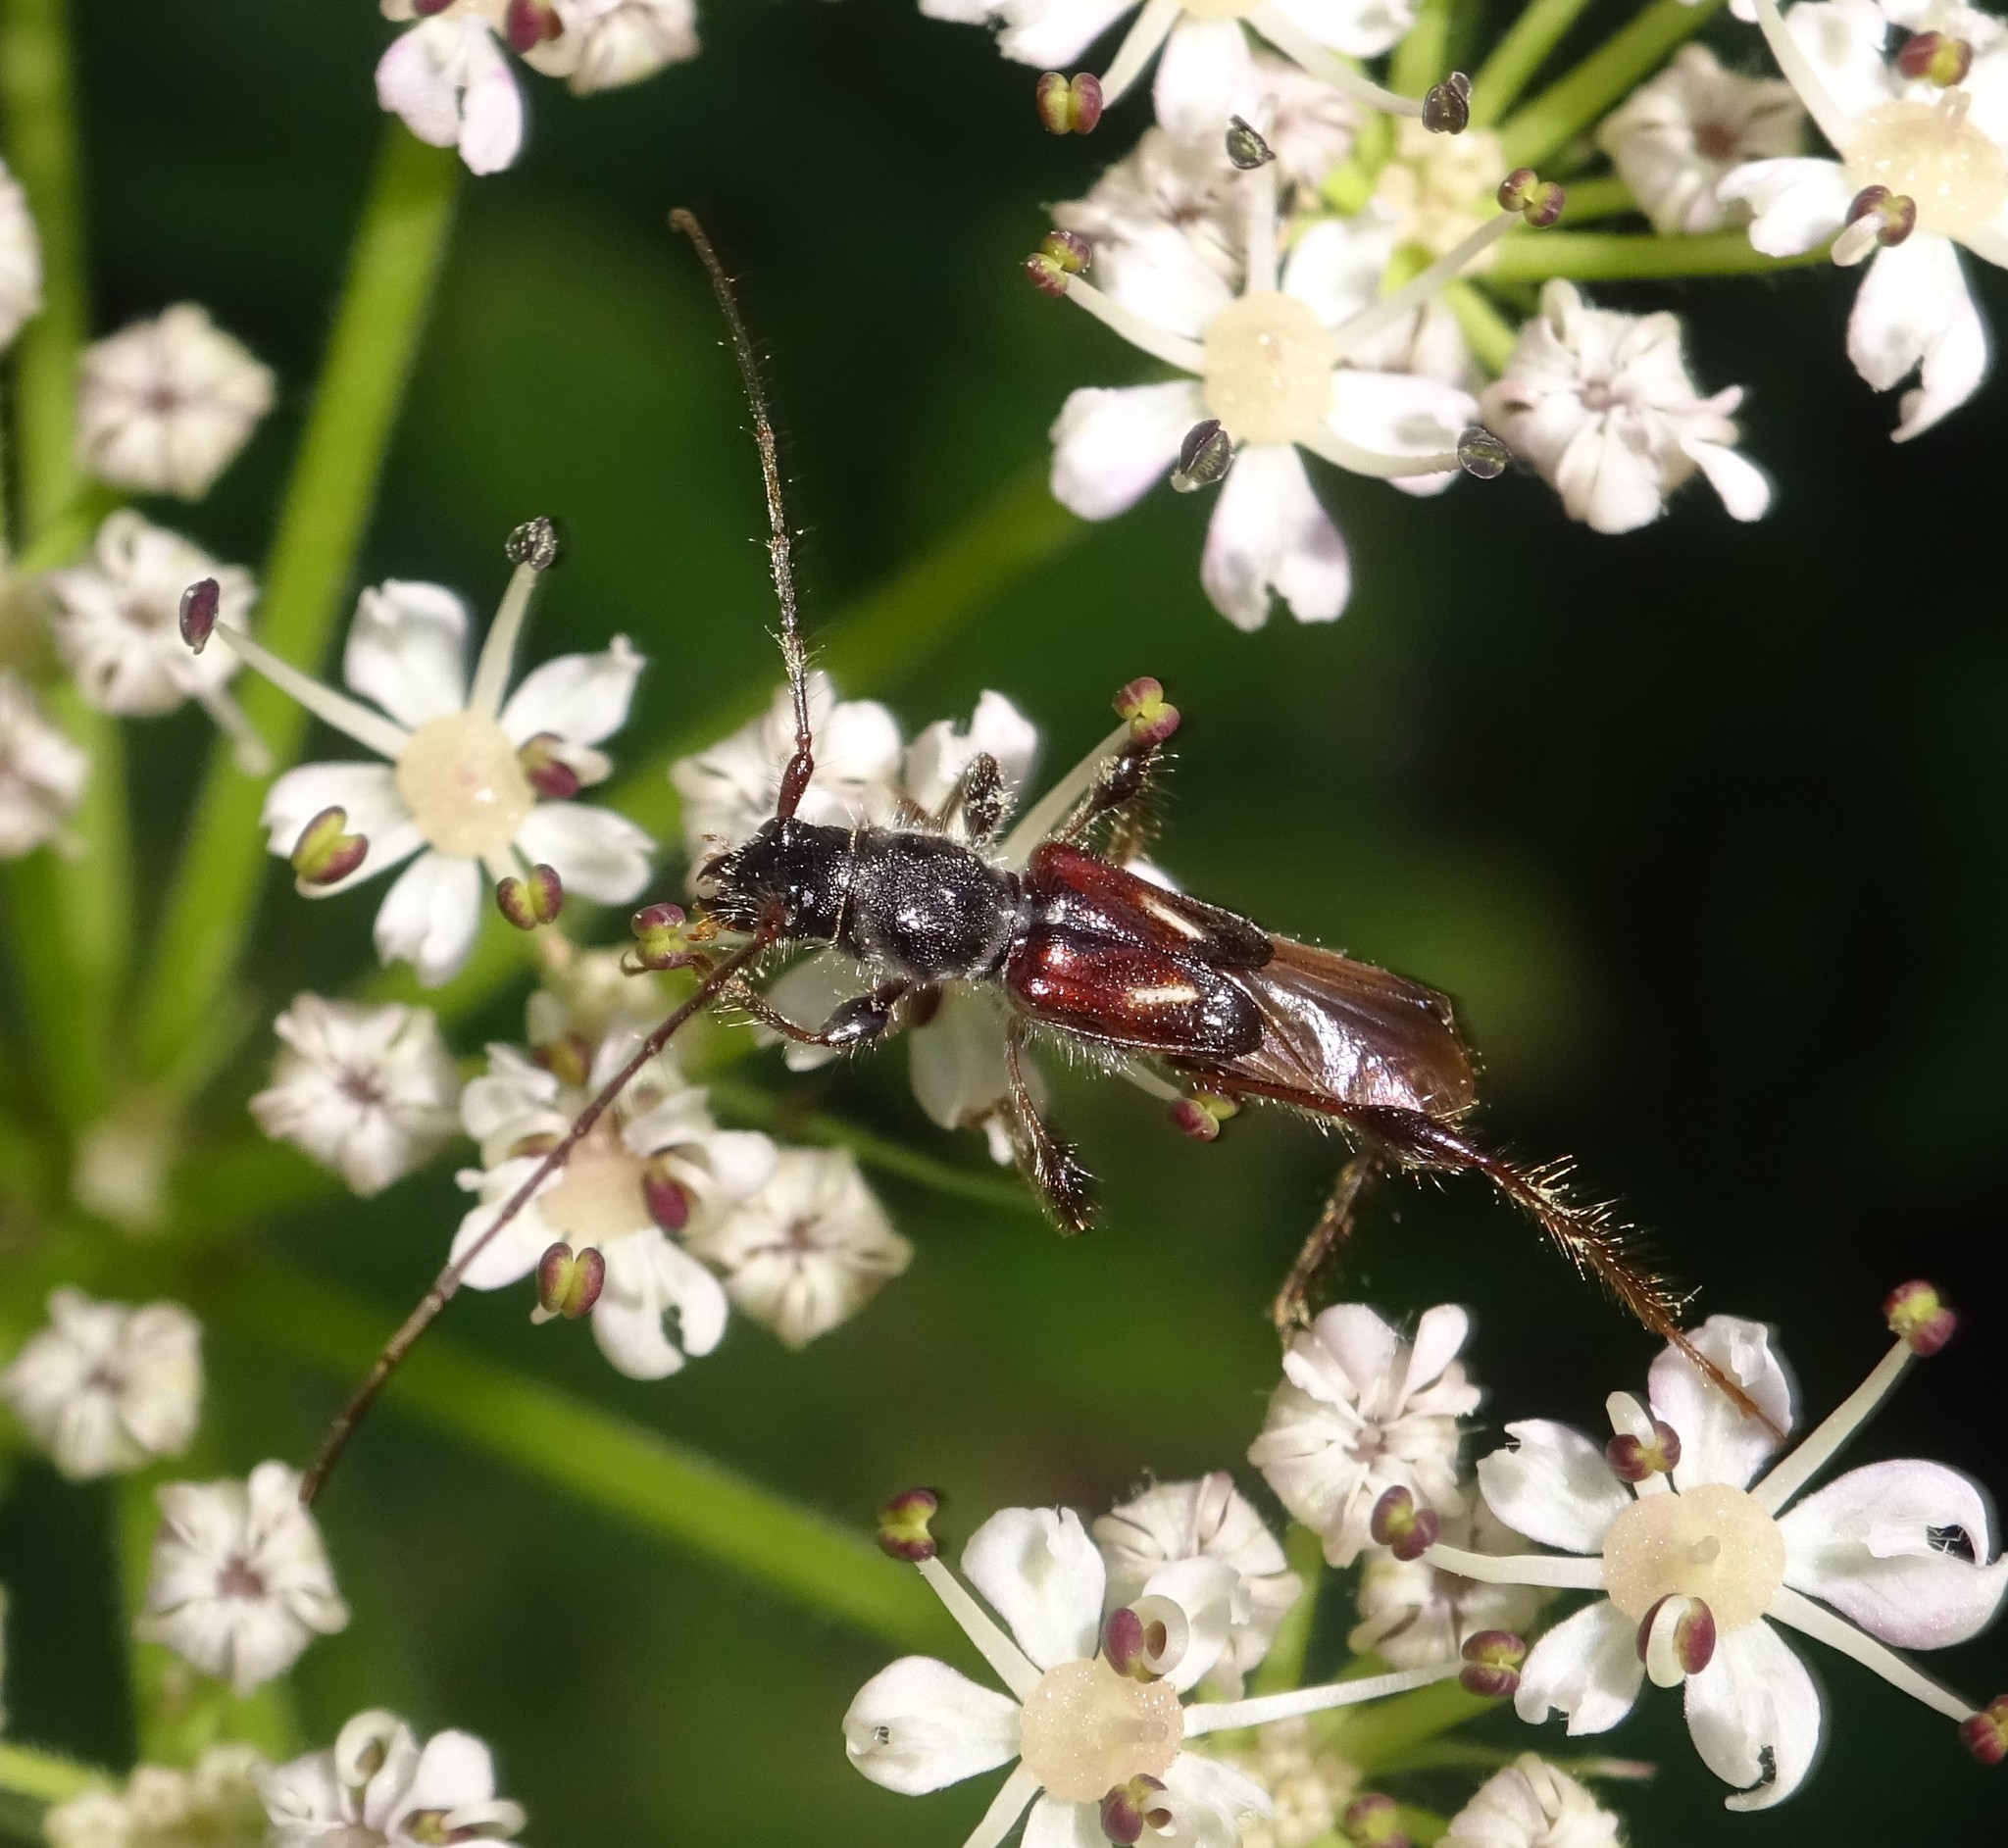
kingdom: Animalia
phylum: Arthropoda
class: Insecta
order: Coleoptera
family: Cerambycidae
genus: Molorchus
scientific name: Molorchus minor
